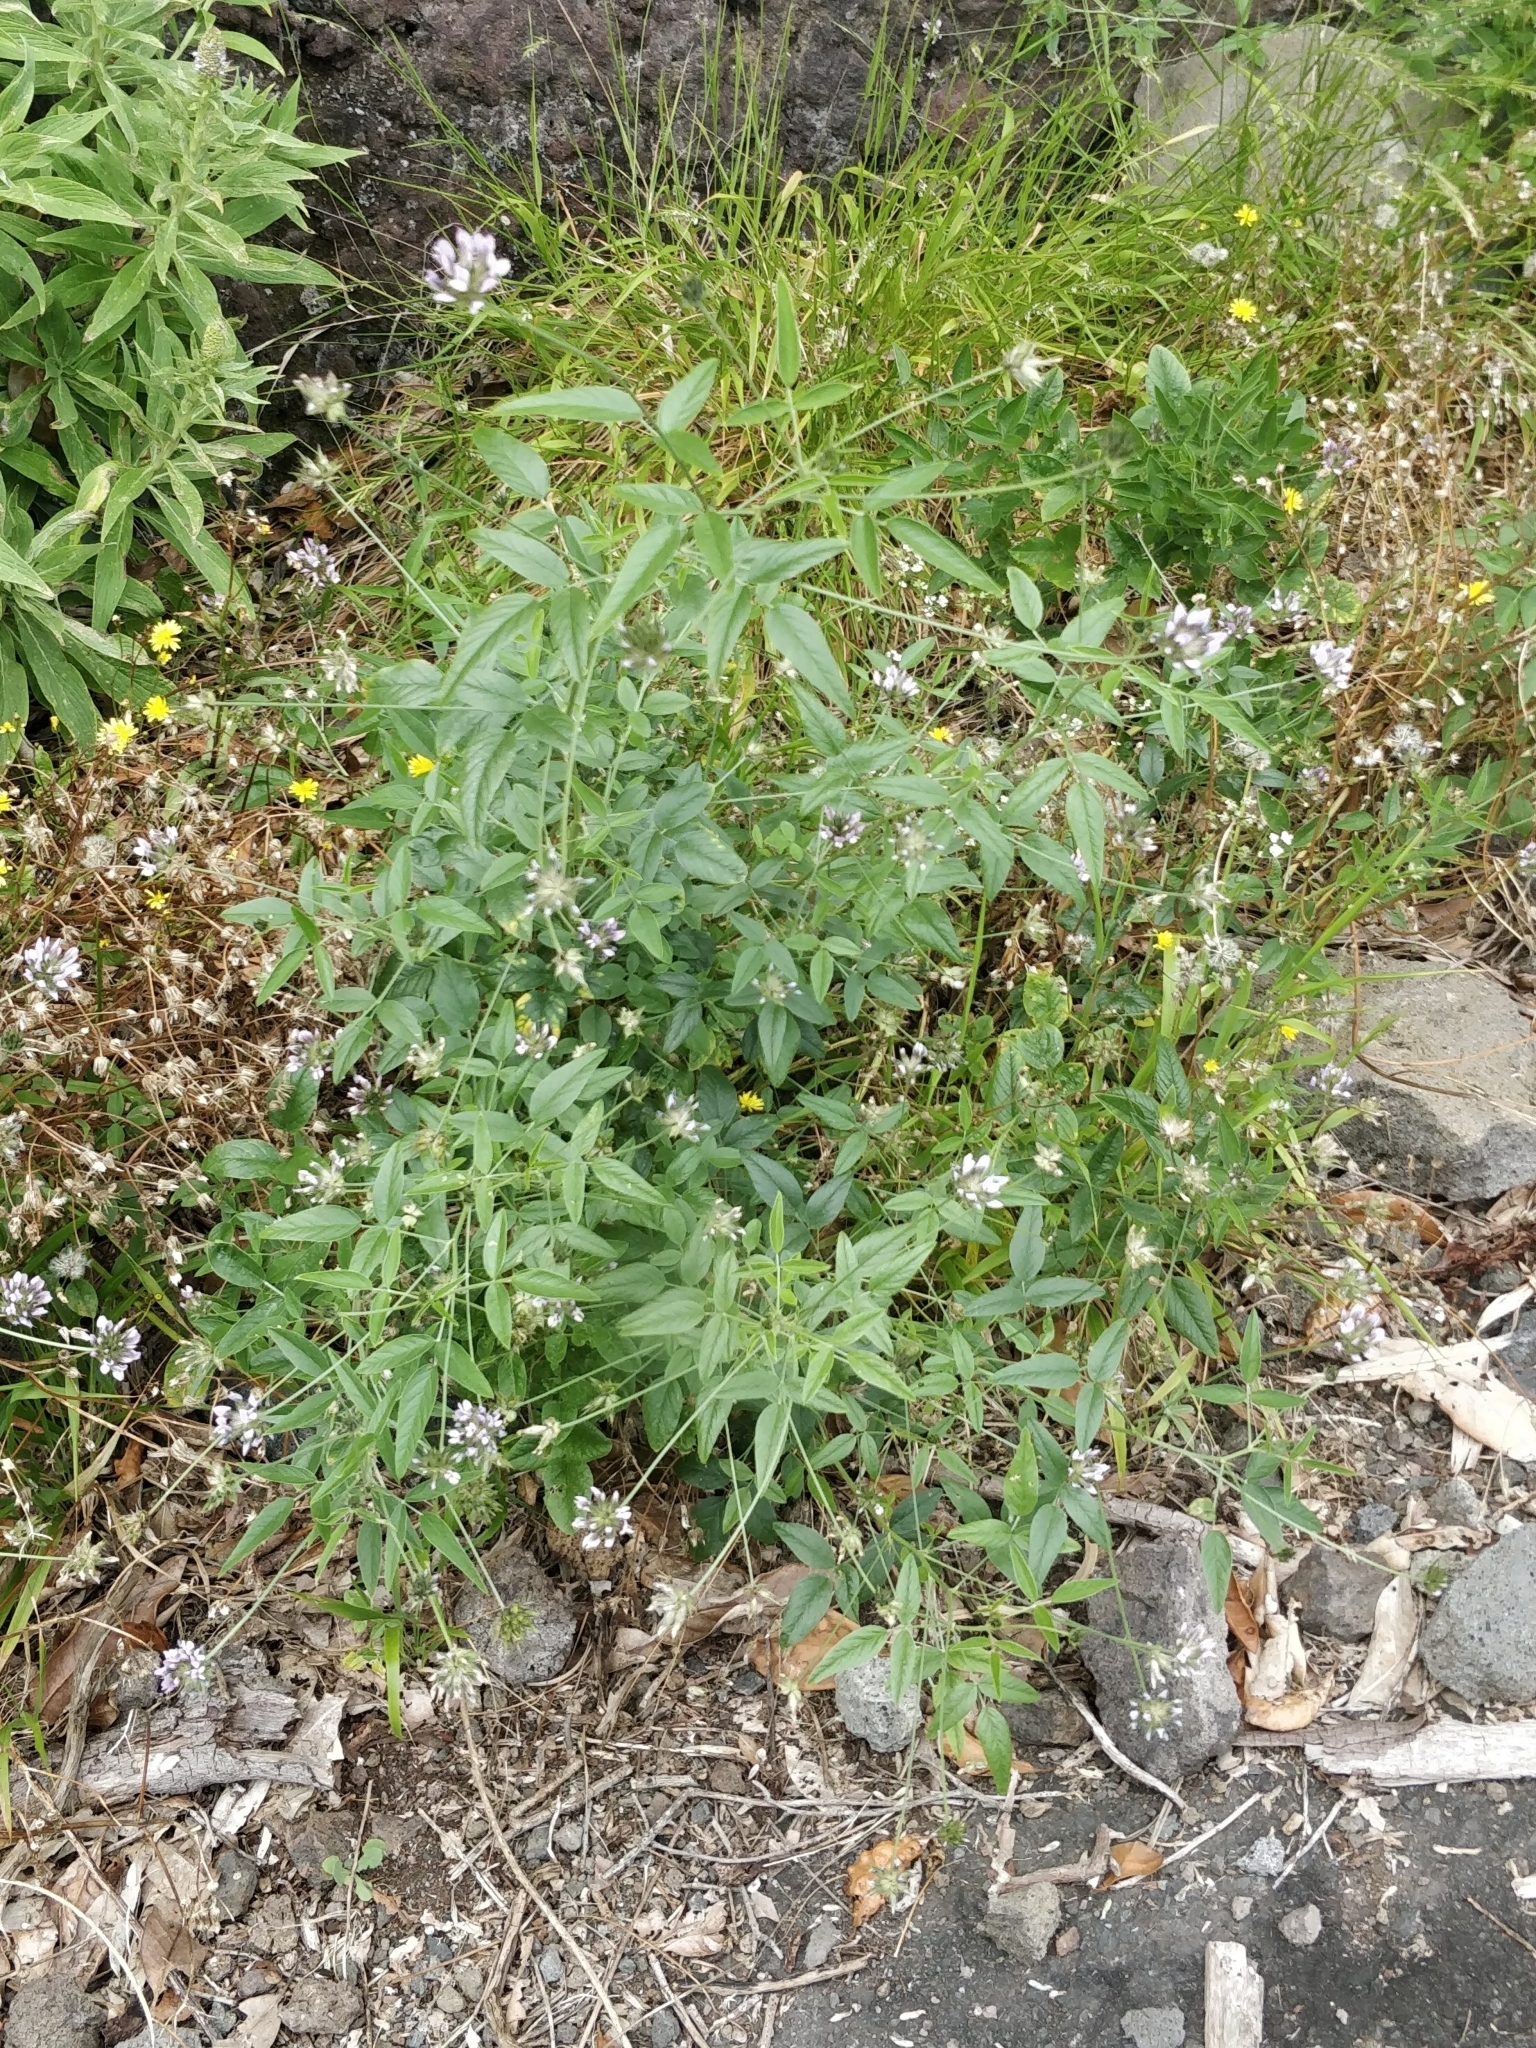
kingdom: Plantae
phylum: Tracheophyta
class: Magnoliopsida
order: Fabales
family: Fabaceae
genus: Bituminaria
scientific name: Bituminaria bituminosa
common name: Arabian pea
